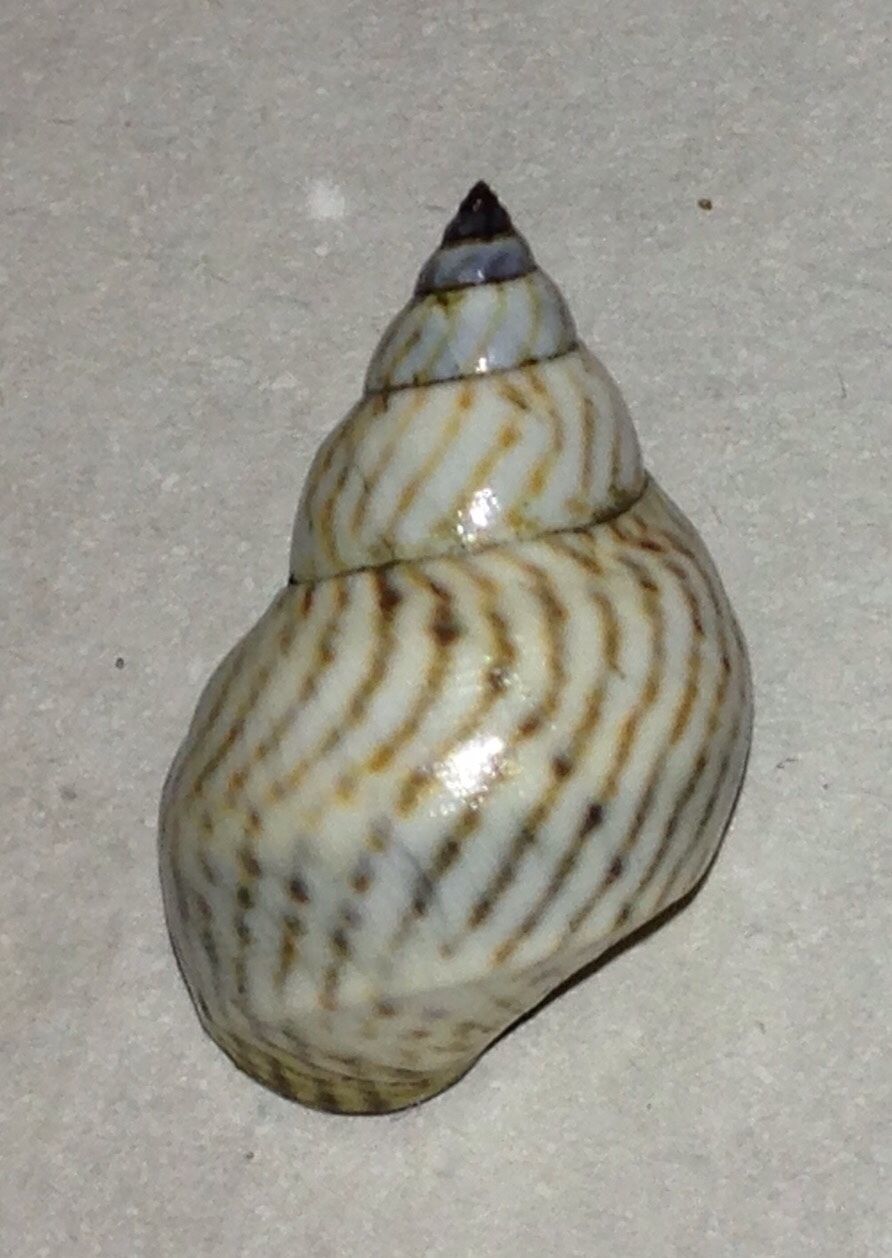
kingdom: Animalia
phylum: Mollusca
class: Gastropoda
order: Littorinimorpha
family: Littorinidae
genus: Echinolittorina
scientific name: Echinolittorina ziczac
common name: Zebra periwinkle
